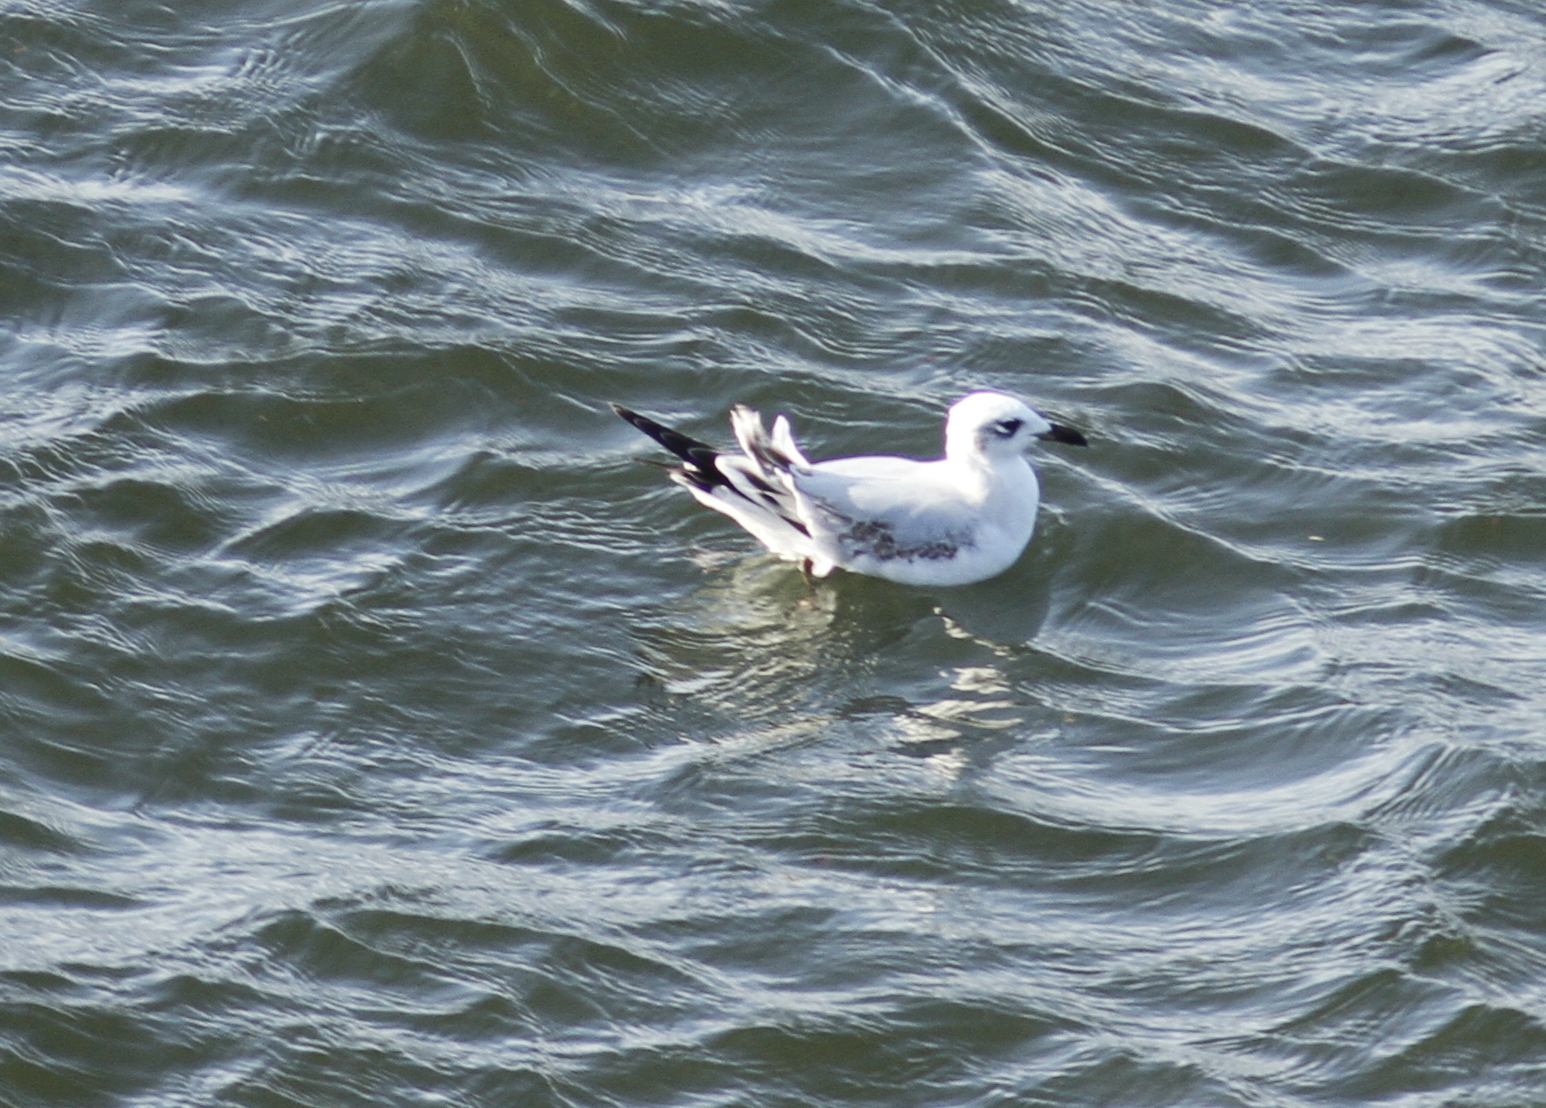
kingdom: Animalia
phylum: Chordata
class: Aves
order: Charadriiformes
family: Laridae
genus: Ichthyaetus
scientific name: Ichthyaetus melanocephalus
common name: Mediterranean gull
